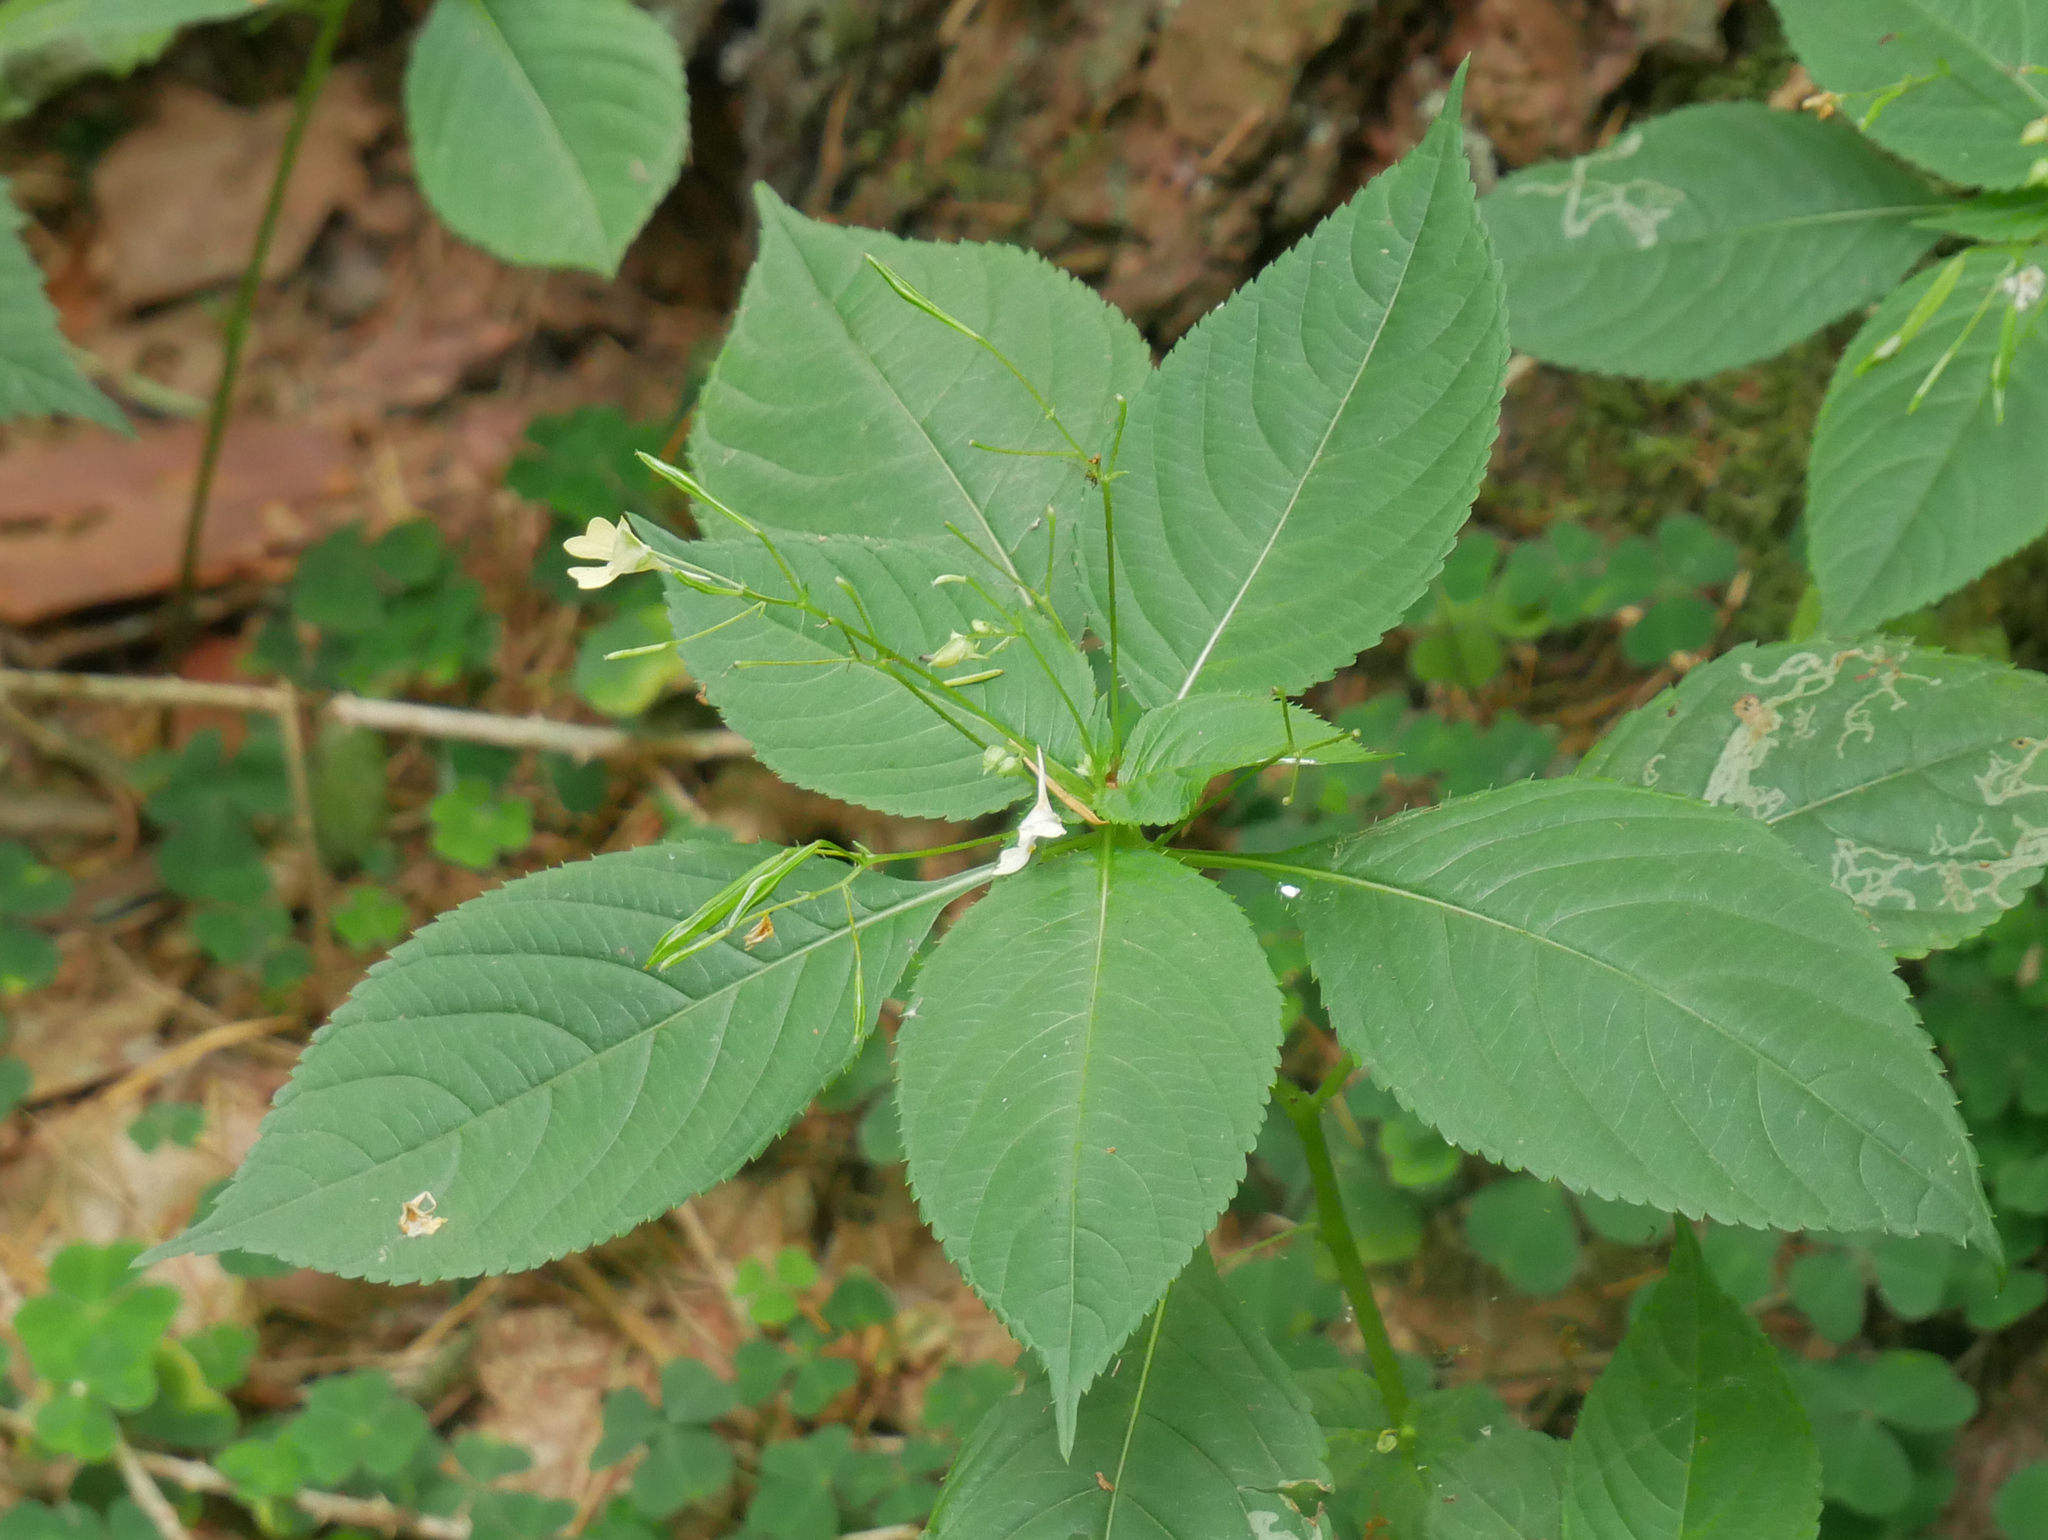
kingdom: Plantae
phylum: Tracheophyta
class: Magnoliopsida
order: Ericales
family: Balsaminaceae
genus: Impatiens
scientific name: Impatiens parviflora
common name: Small balsam
